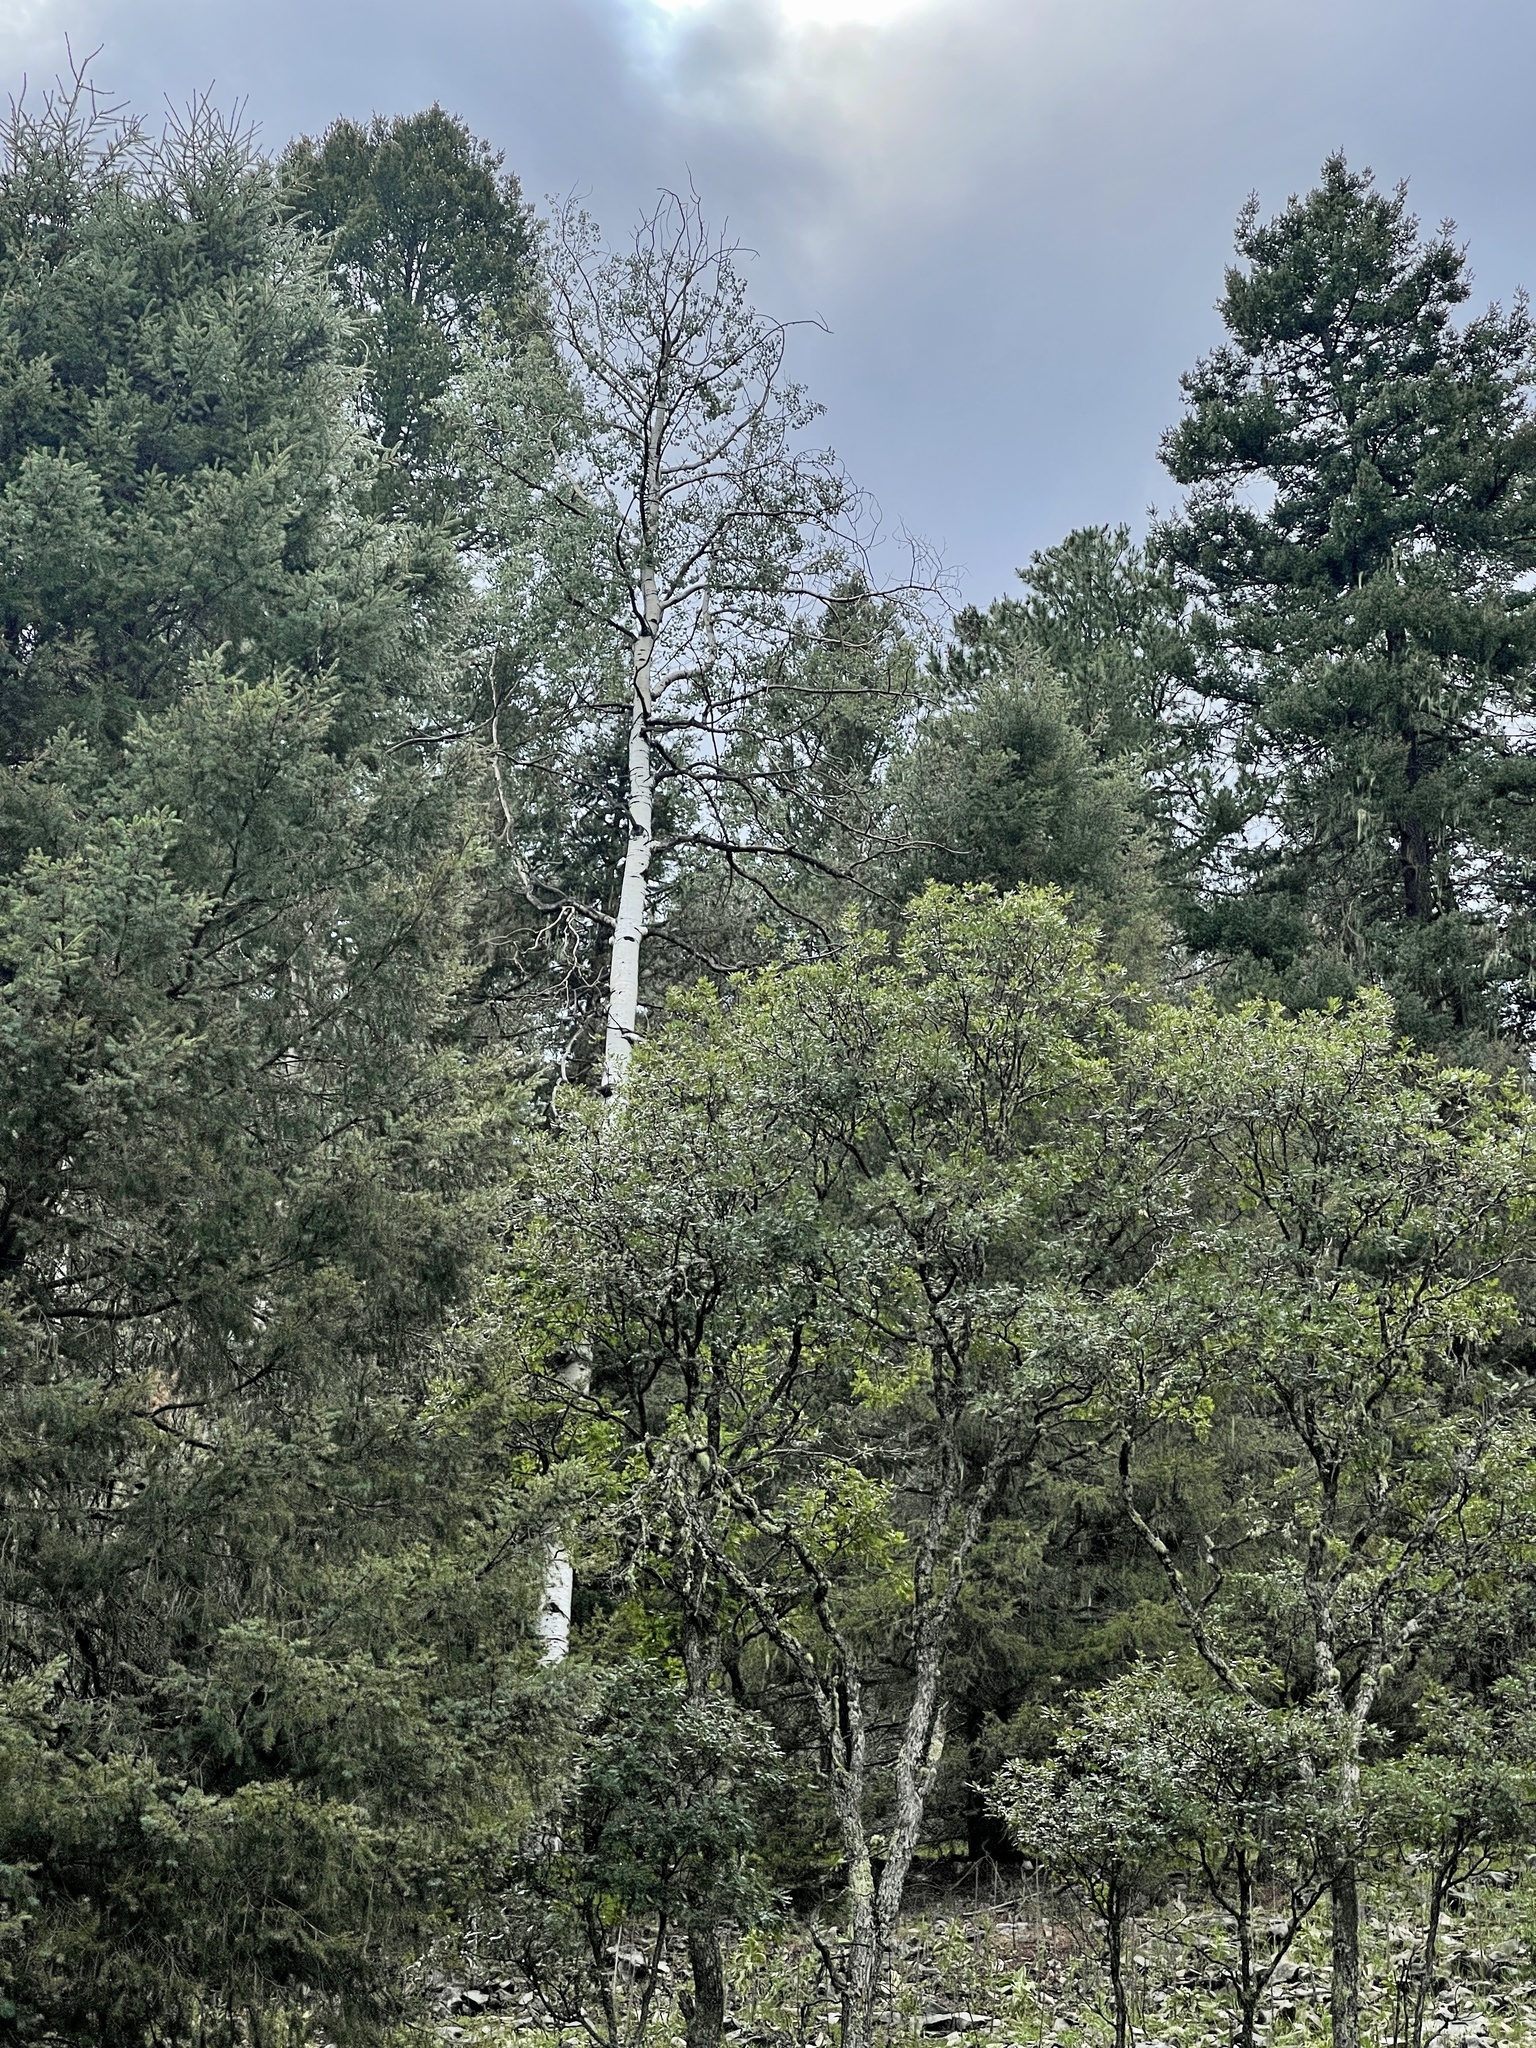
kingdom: Plantae
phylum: Tracheophyta
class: Magnoliopsida
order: Malpighiales
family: Salicaceae
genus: Populus
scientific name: Populus tremuloides
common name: Quaking aspen
